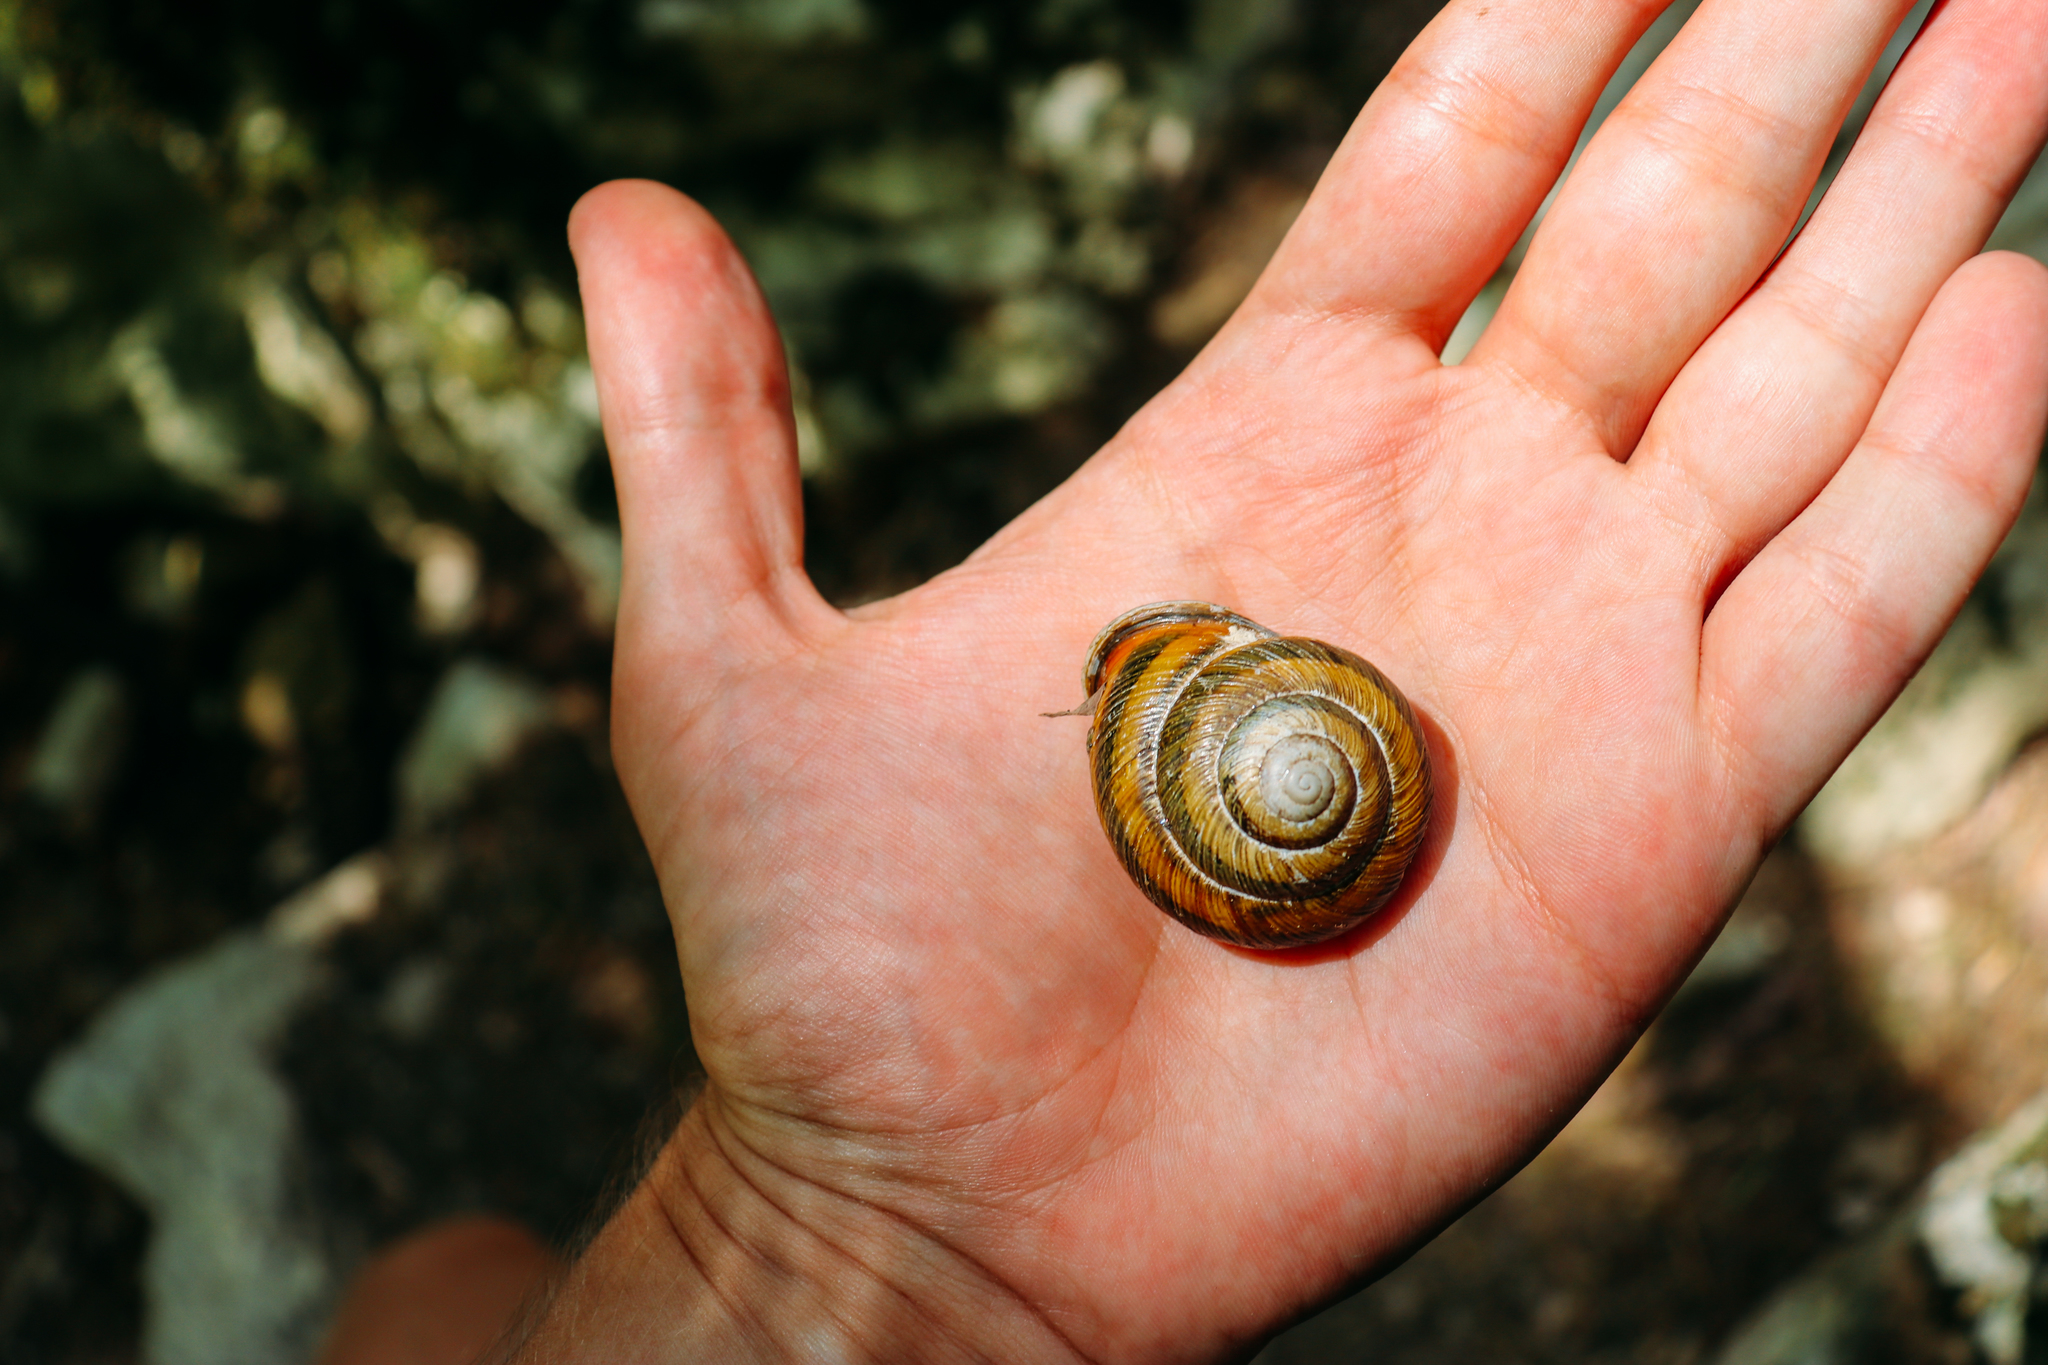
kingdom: Animalia
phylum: Mollusca
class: Gastropoda
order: Stylommatophora
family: Helicidae
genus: Caucasotachea
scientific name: Caucasotachea atrolabiata
